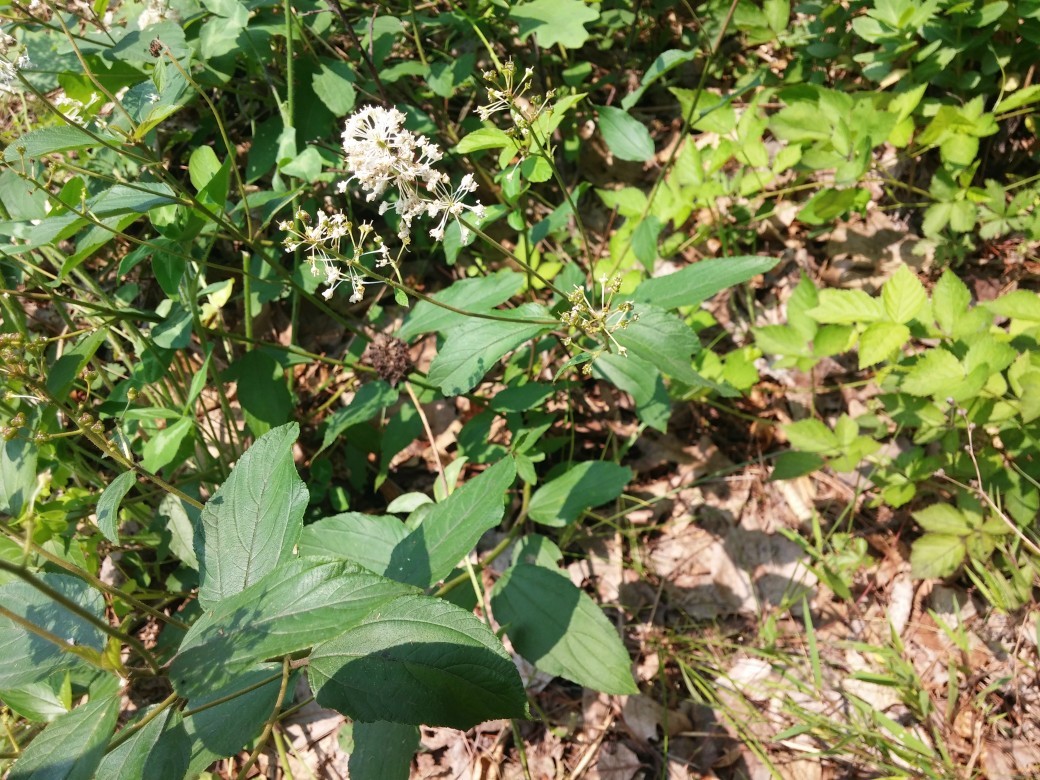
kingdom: Plantae
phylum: Tracheophyta
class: Magnoliopsida
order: Rosales
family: Rhamnaceae
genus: Ceanothus
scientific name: Ceanothus americanus
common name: Redroot
